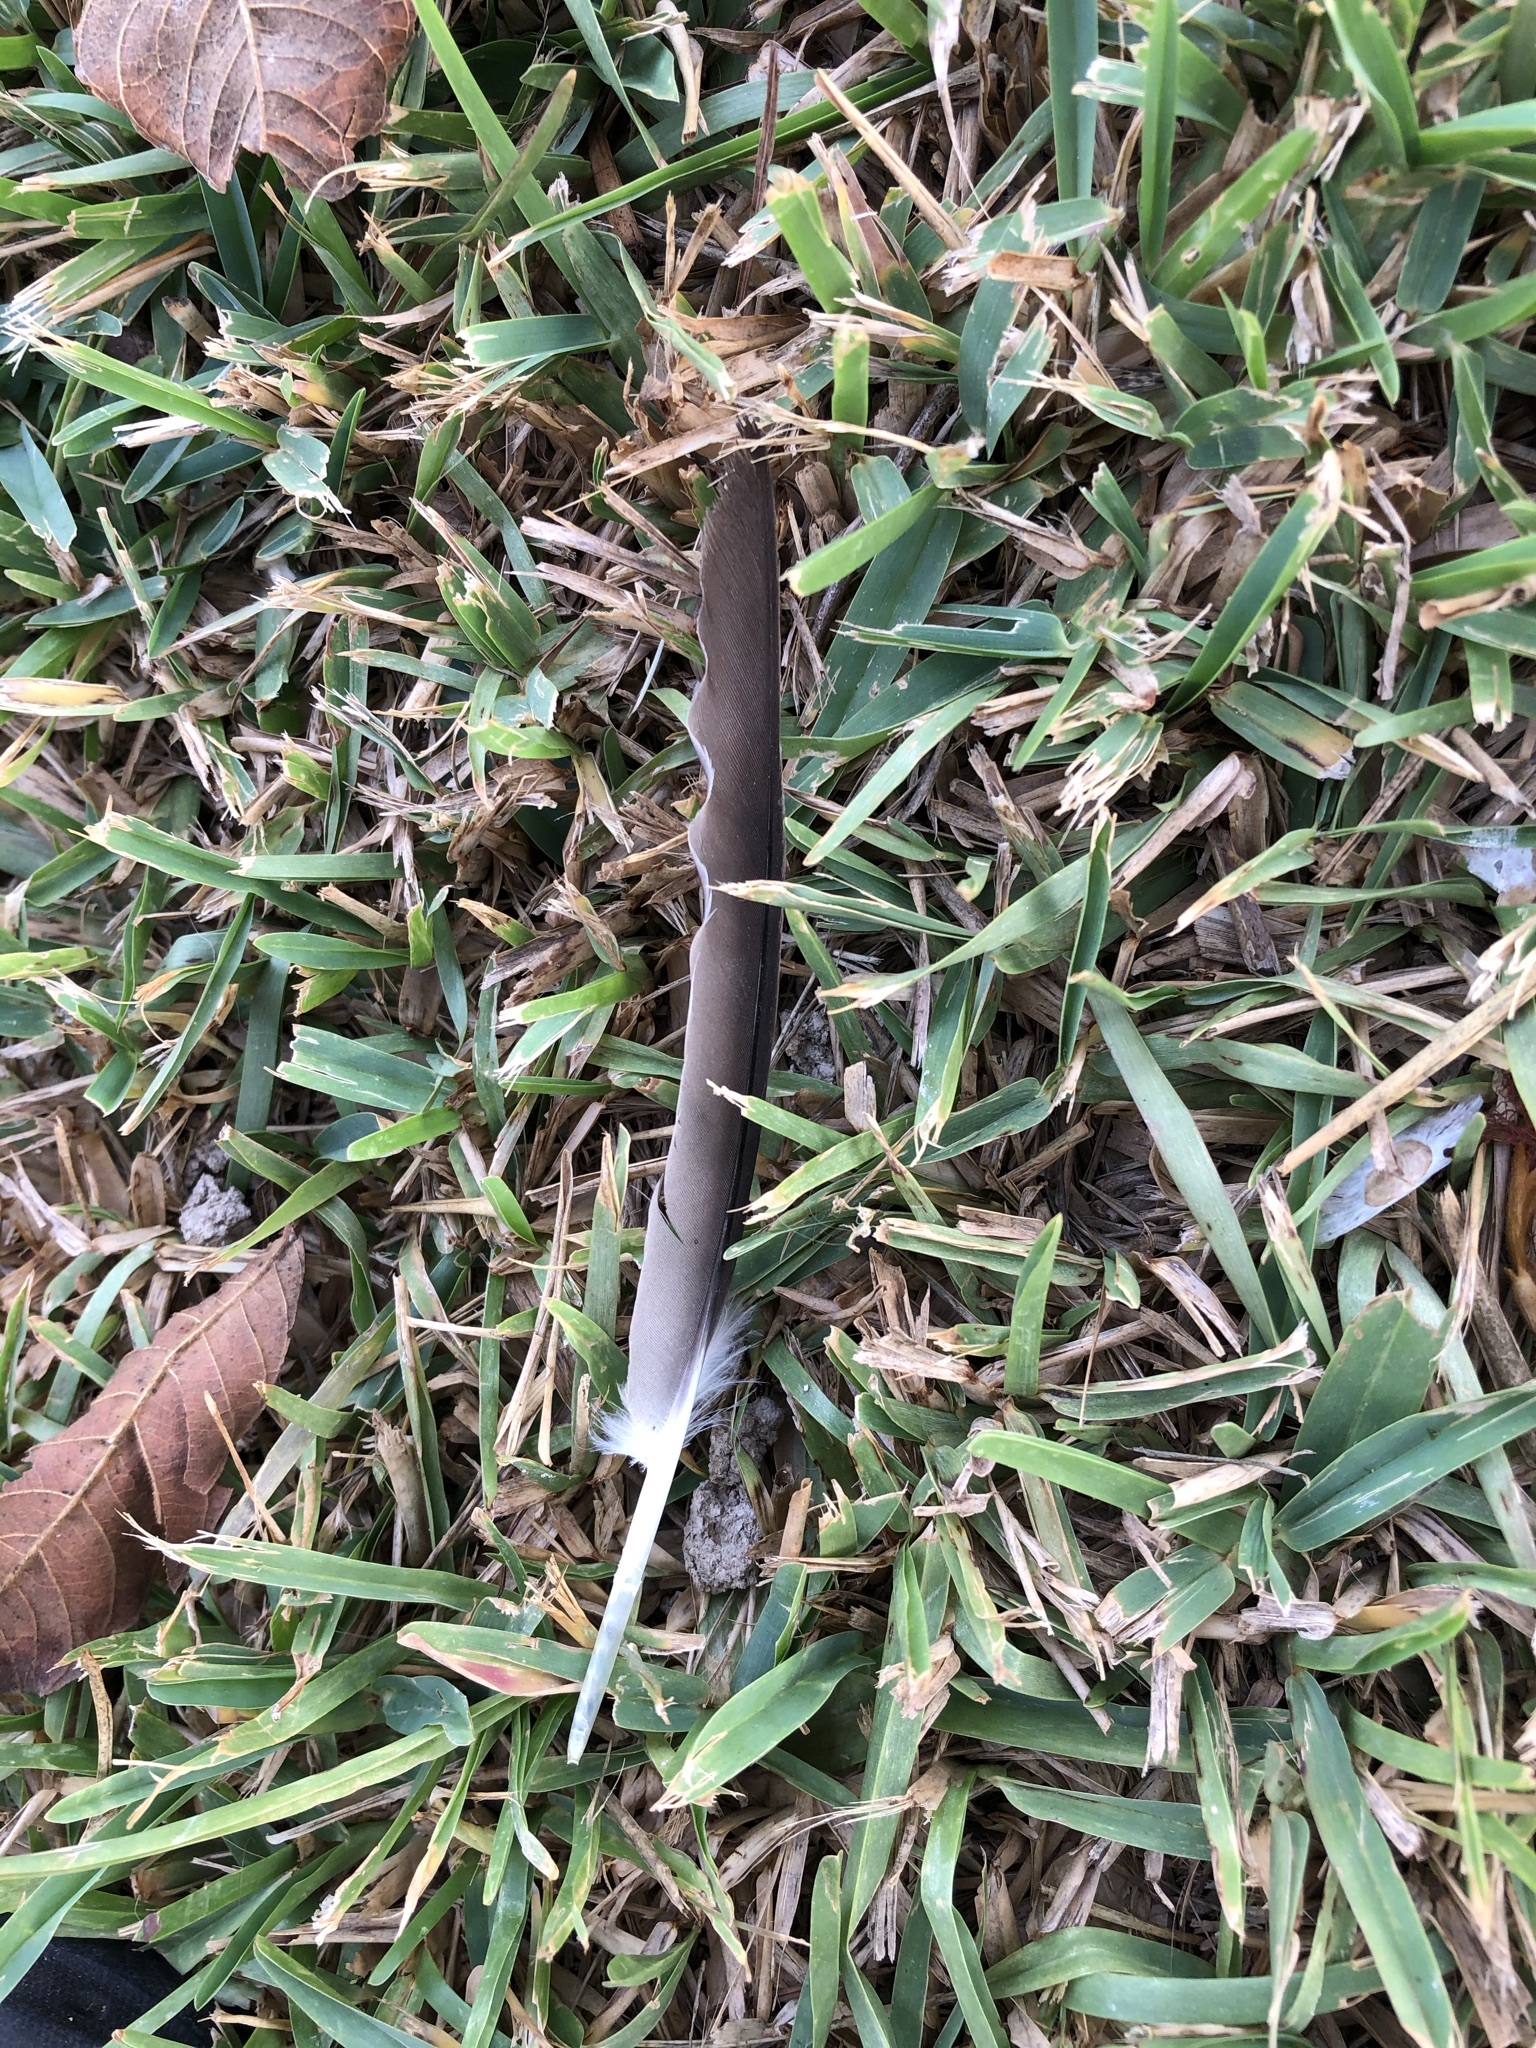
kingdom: Animalia
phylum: Chordata
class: Aves
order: Columbiformes
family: Columbidae
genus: Zenaida
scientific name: Zenaida meloda
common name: West peruvian dove
